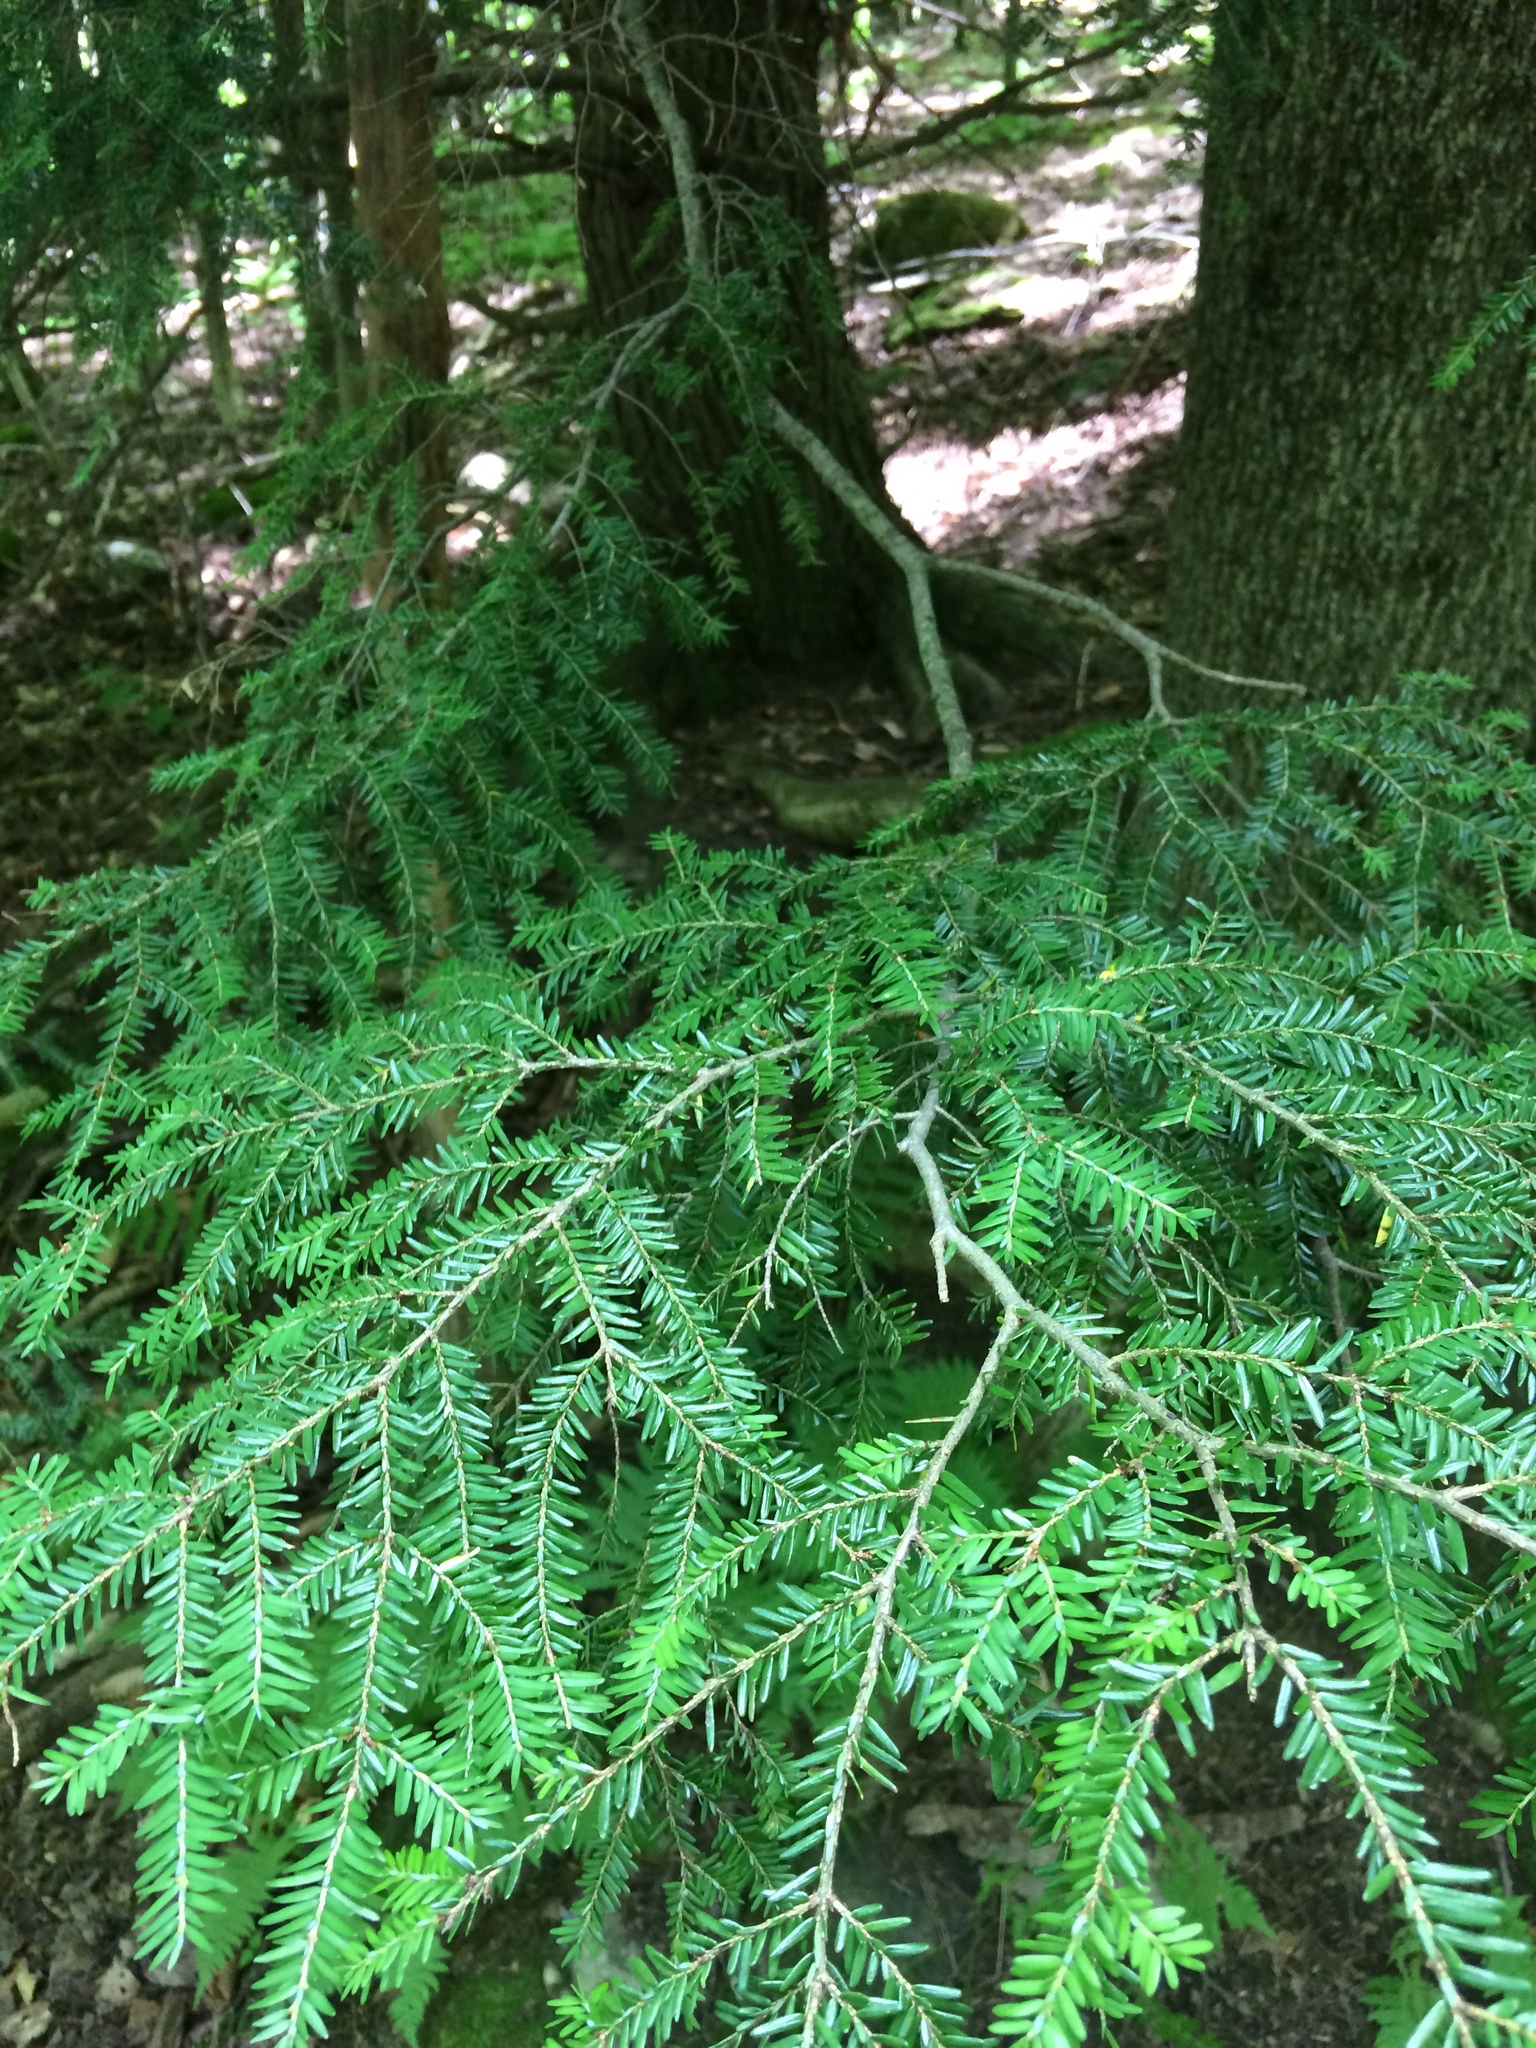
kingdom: Plantae
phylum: Tracheophyta
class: Pinopsida
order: Pinales
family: Pinaceae
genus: Tsuga
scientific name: Tsuga canadensis
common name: Eastern hemlock
